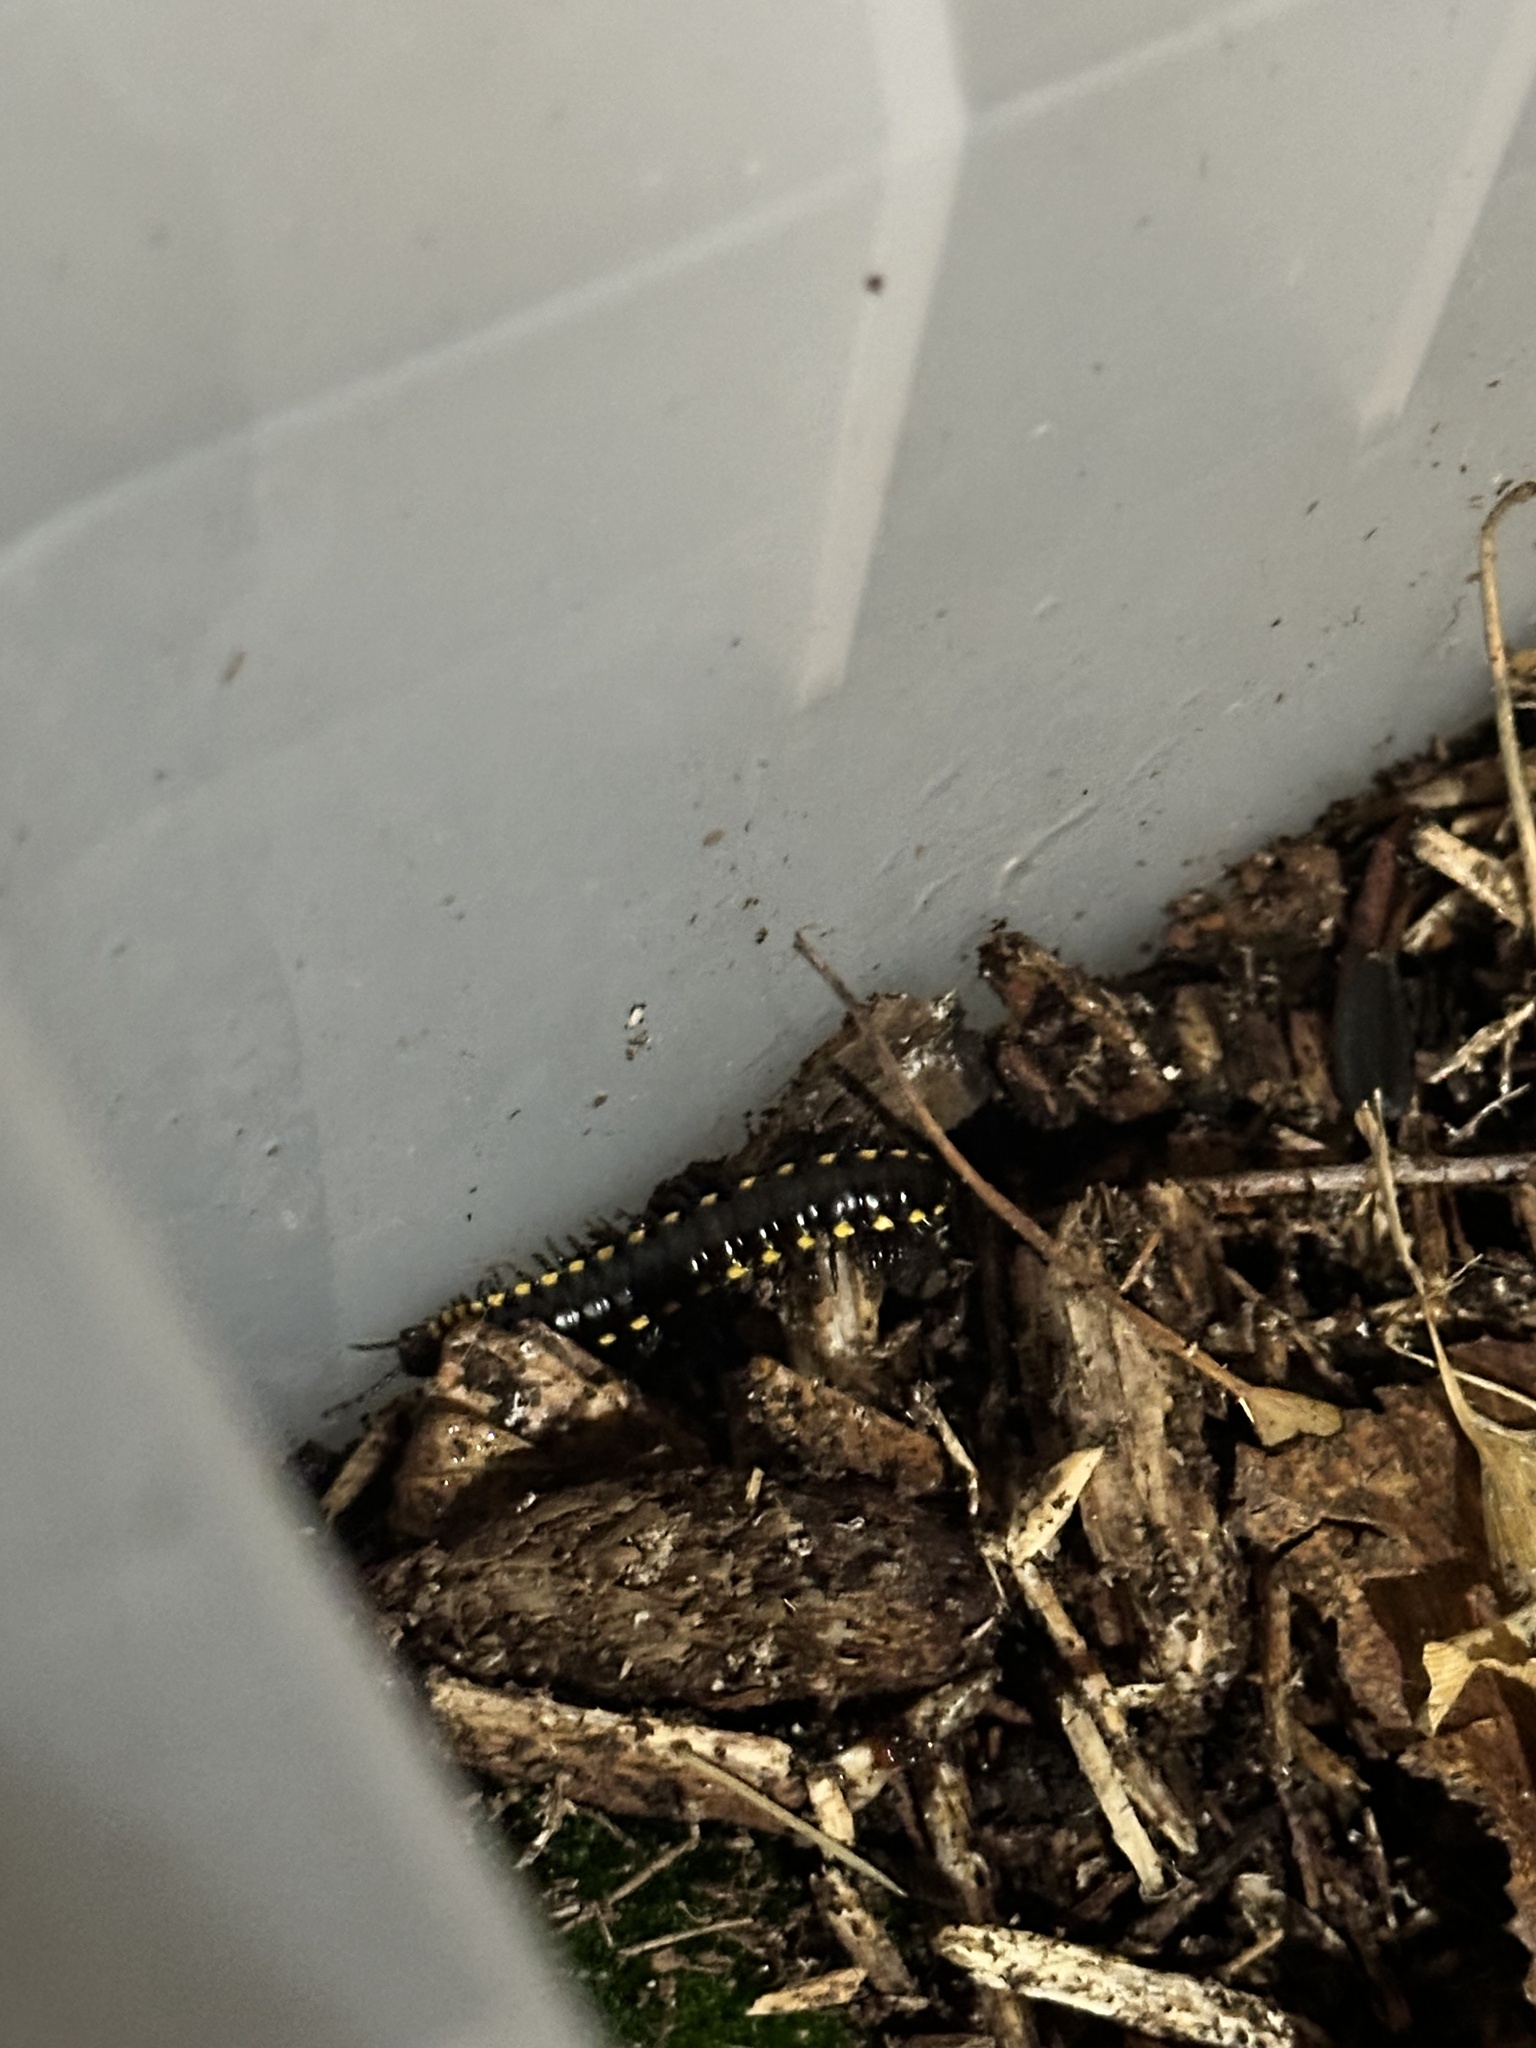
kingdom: Animalia
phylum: Arthropoda
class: Diplopoda
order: Polydesmida
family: Xystodesmidae
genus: Harpaphe
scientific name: Harpaphe haydeniana
